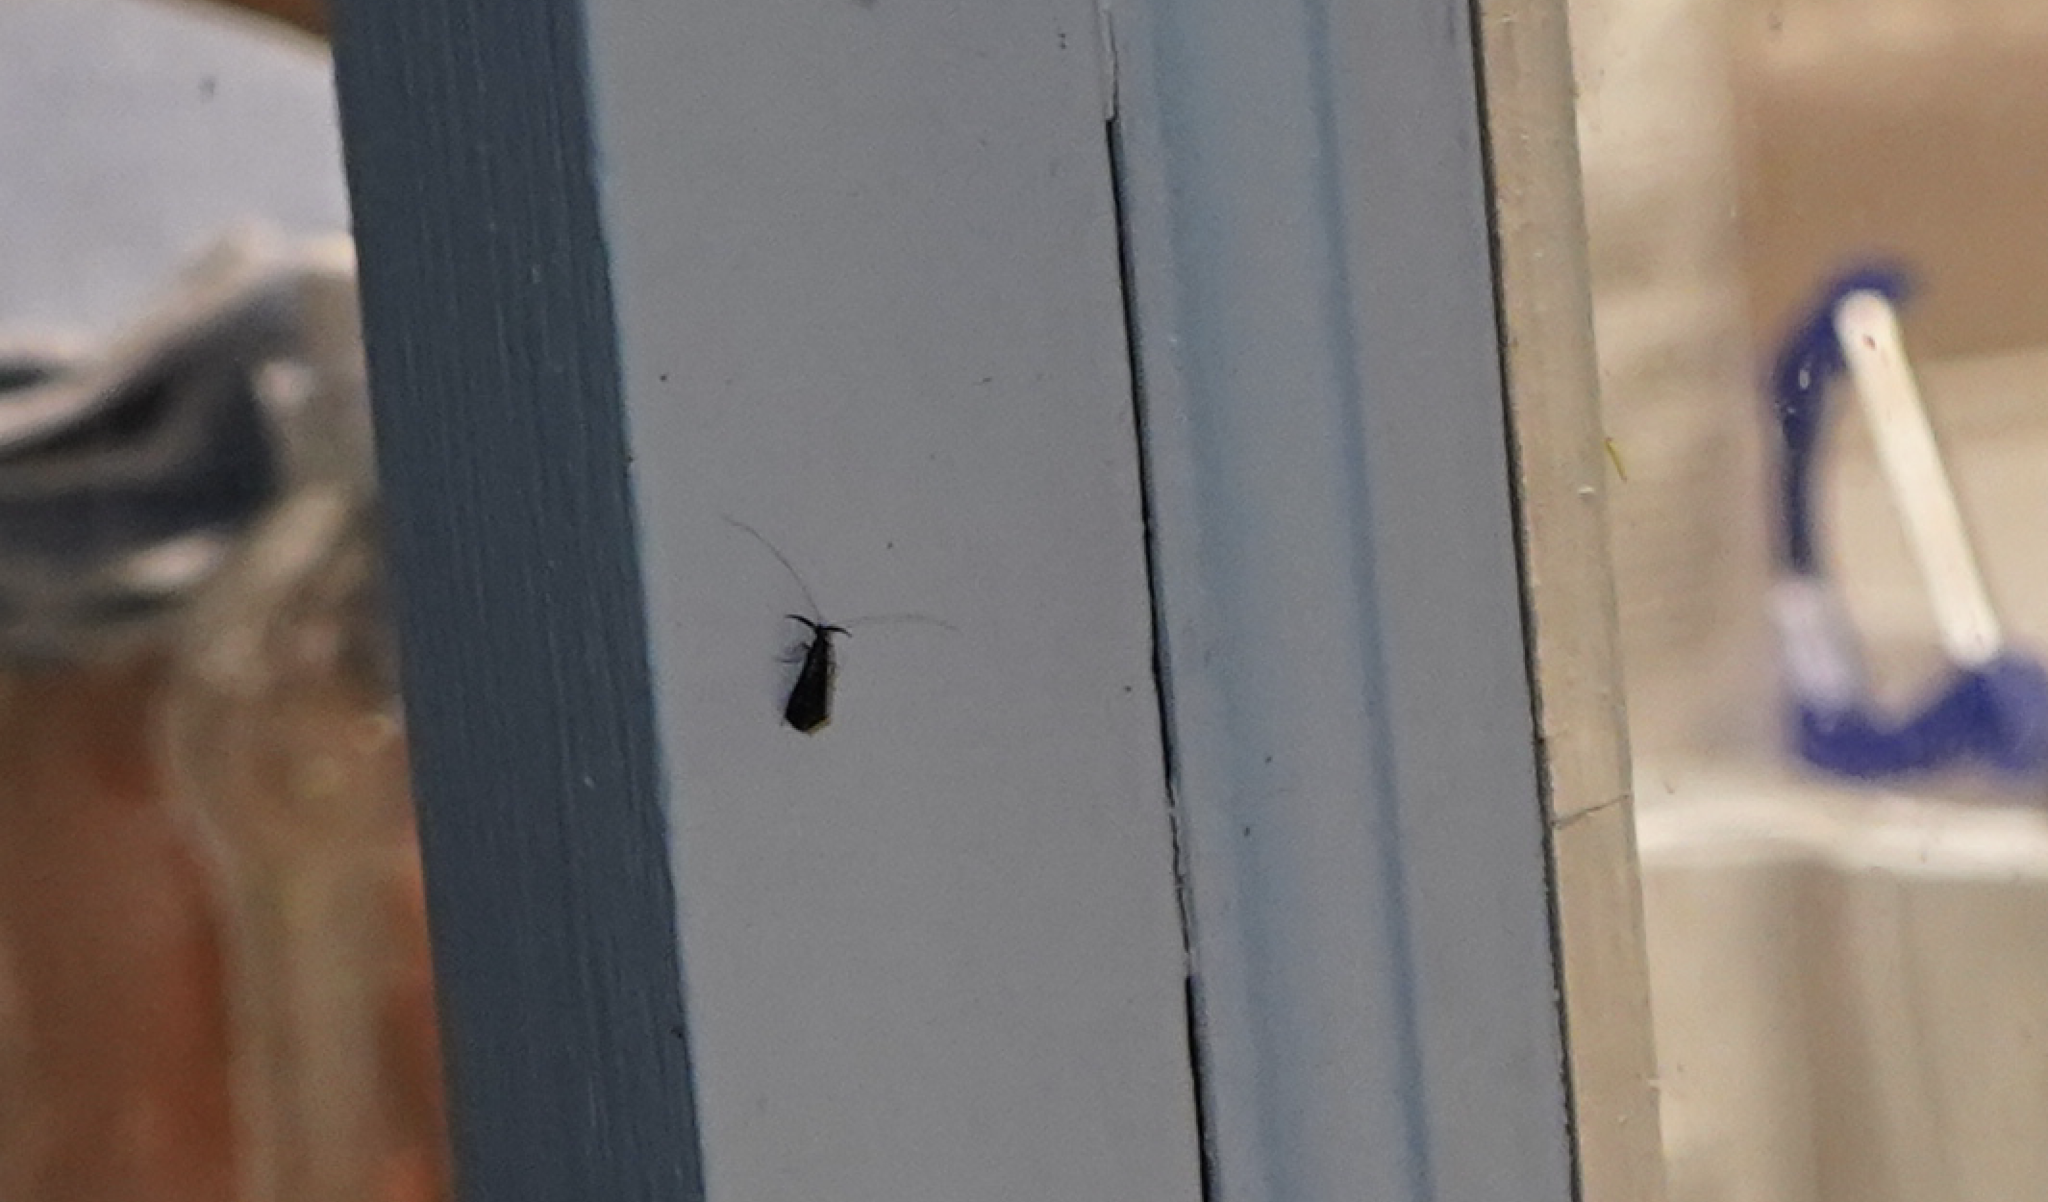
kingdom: Animalia
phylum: Arthropoda
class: Insecta
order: Trichoptera
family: Leptoceridae
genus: Mystacides
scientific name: Mystacides sepulchralis
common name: Black dancer caddisfly
